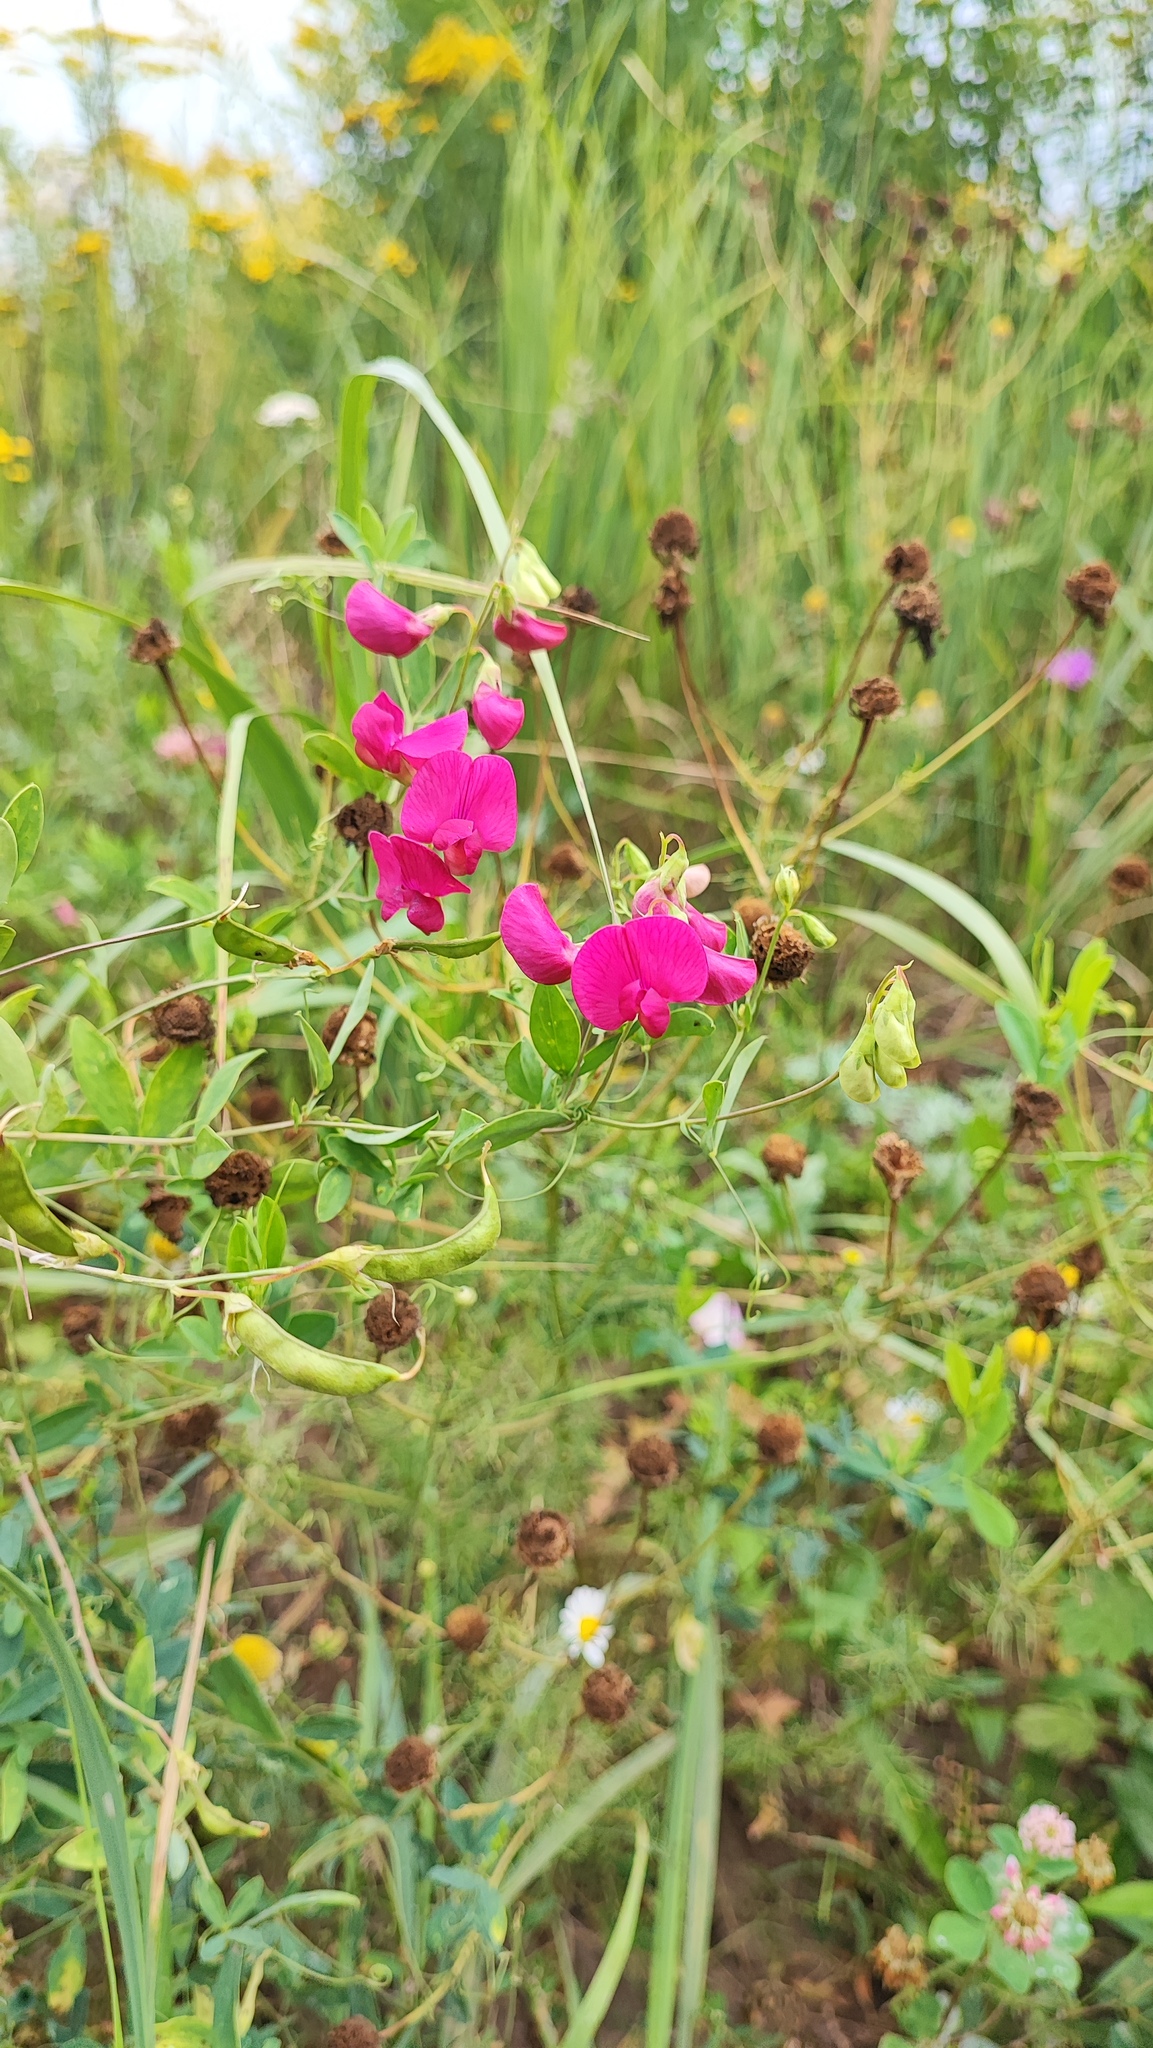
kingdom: Plantae
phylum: Tracheophyta
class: Magnoliopsida
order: Fabales
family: Fabaceae
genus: Lathyrus
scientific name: Lathyrus tuberosus
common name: Tuberous pea
